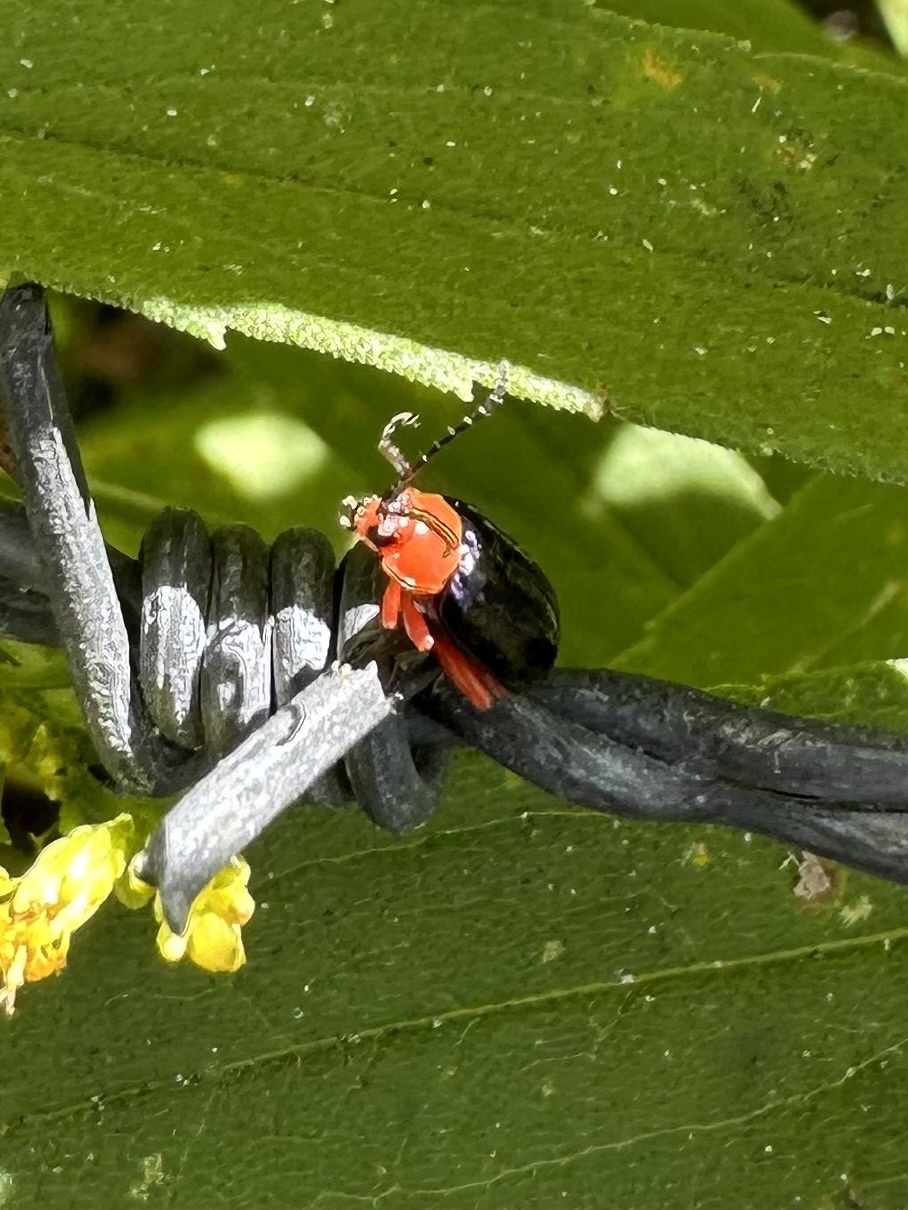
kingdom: Animalia
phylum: Arthropoda
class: Insecta
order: Coleoptera
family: Chrysomelidae
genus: Asphaera
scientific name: Asphaera lustrans
